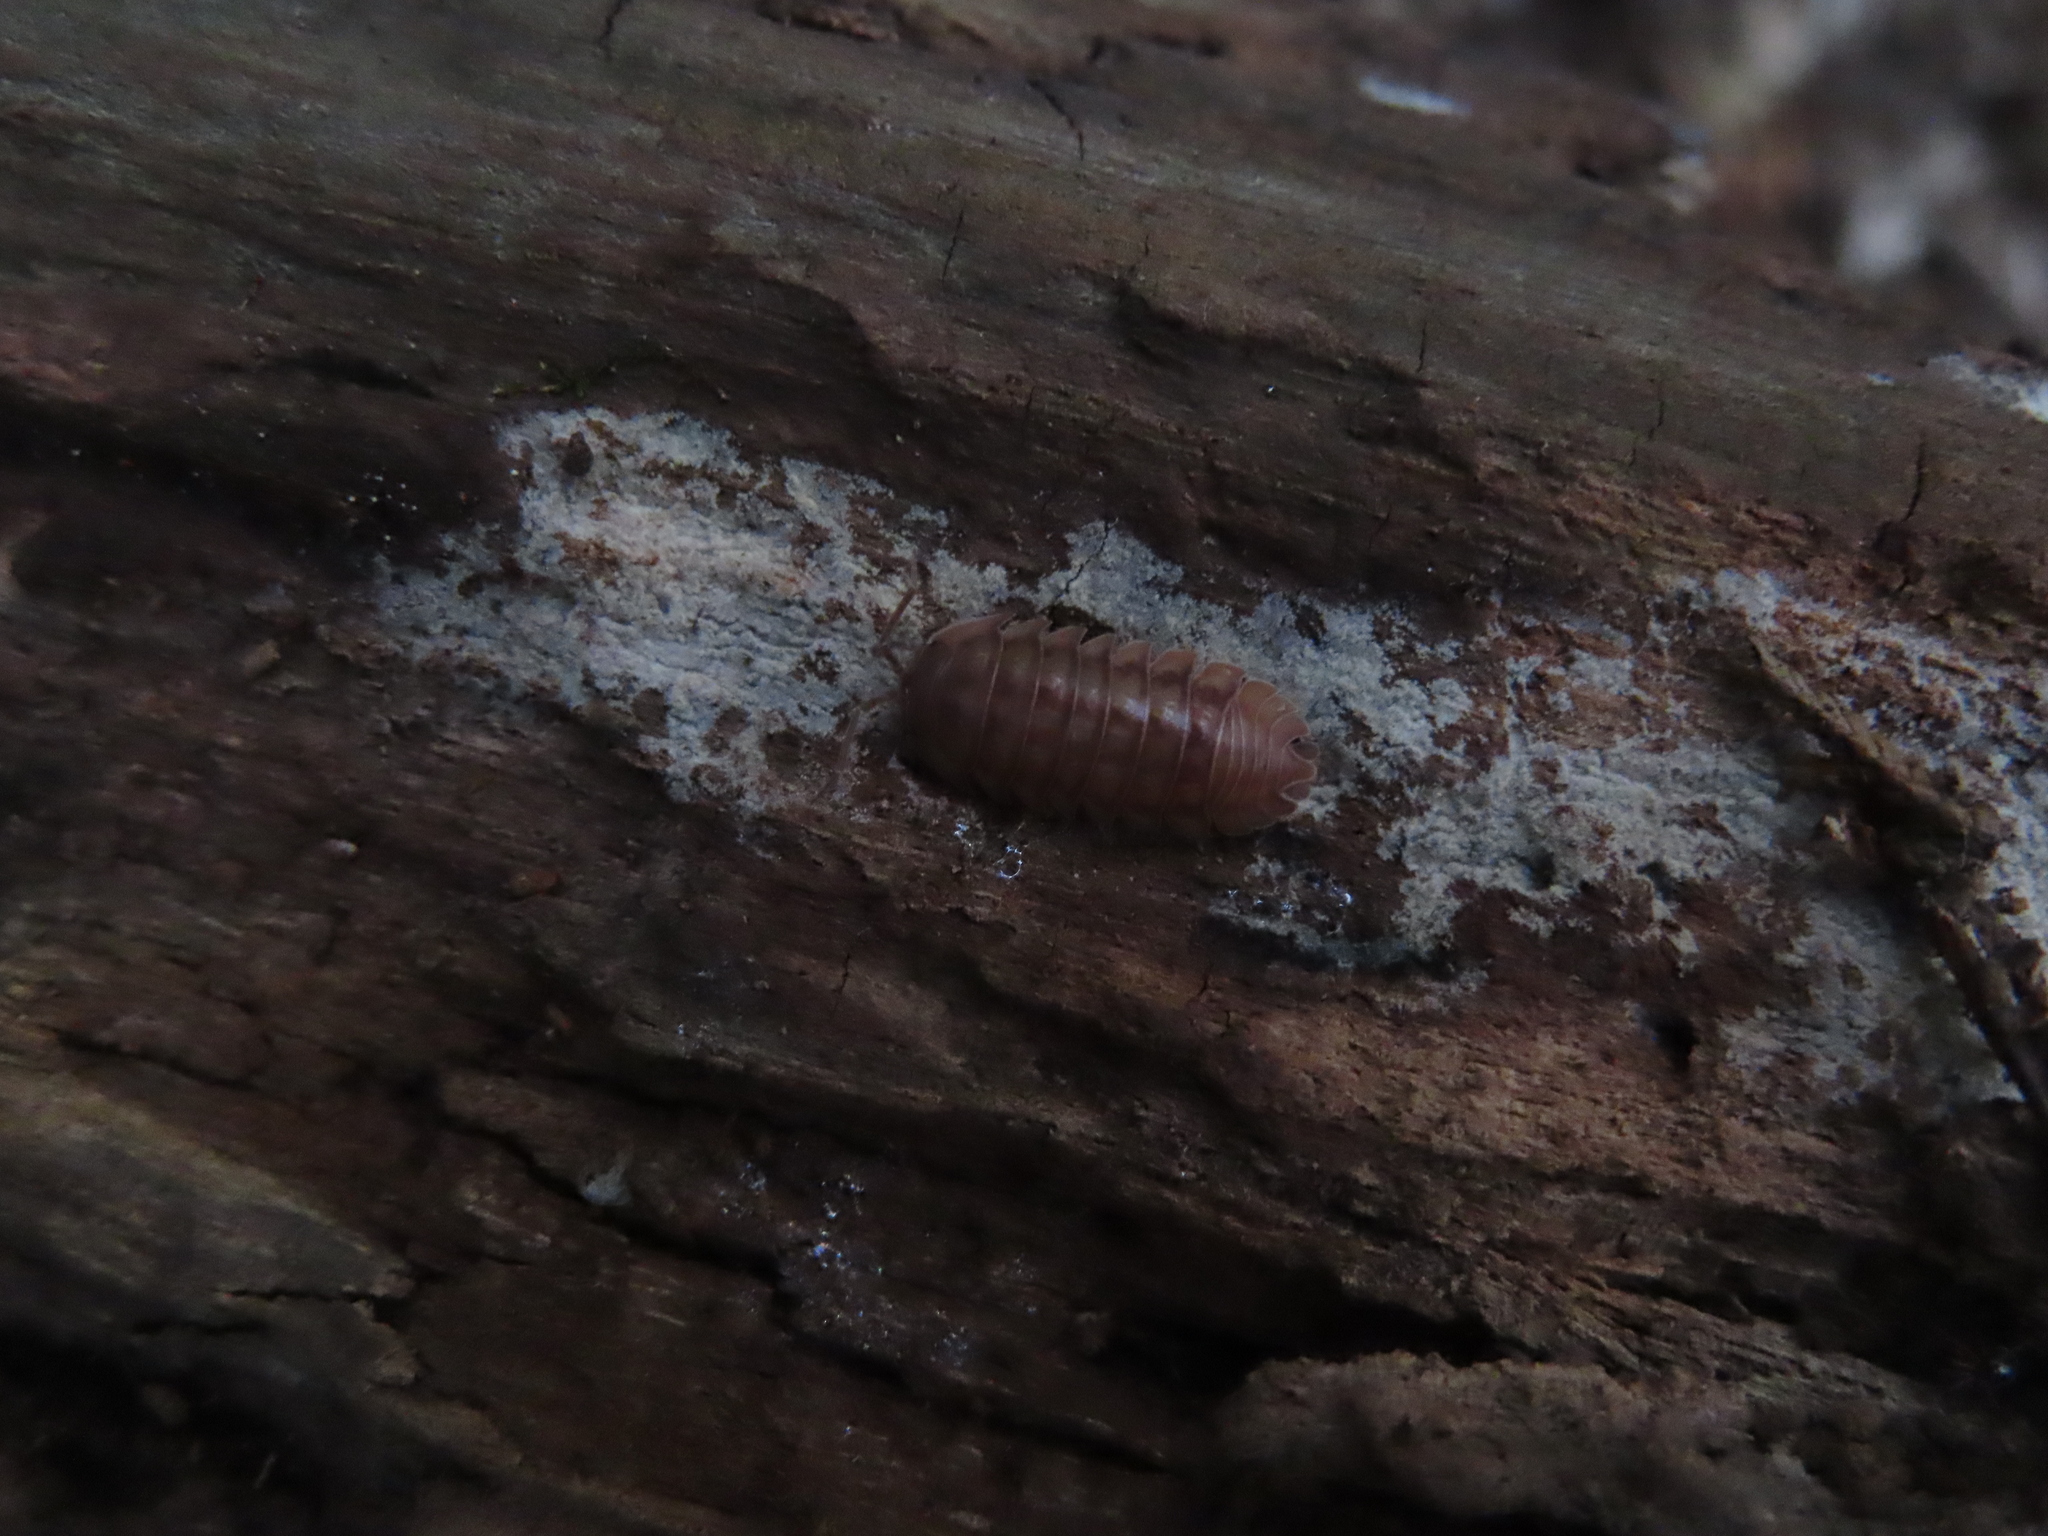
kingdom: Animalia
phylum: Arthropoda
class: Malacostraca
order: Isopoda
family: Armadillidiidae
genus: Armadillidium
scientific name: Armadillidium nasatum
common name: Isopod
